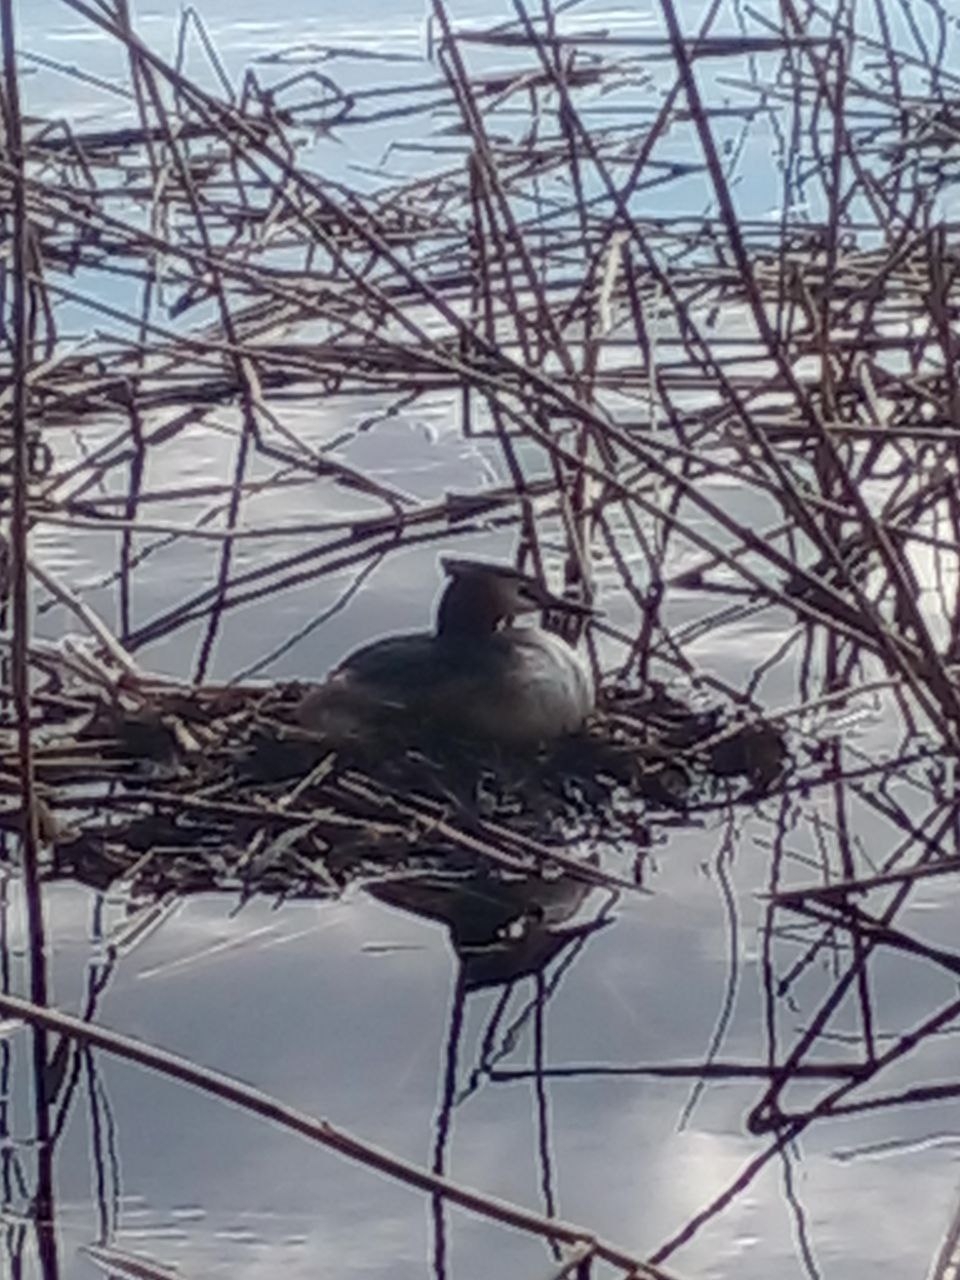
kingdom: Animalia
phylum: Chordata
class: Aves
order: Podicipediformes
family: Podicipedidae
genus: Podiceps
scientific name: Podiceps cristatus
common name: Great crested grebe
